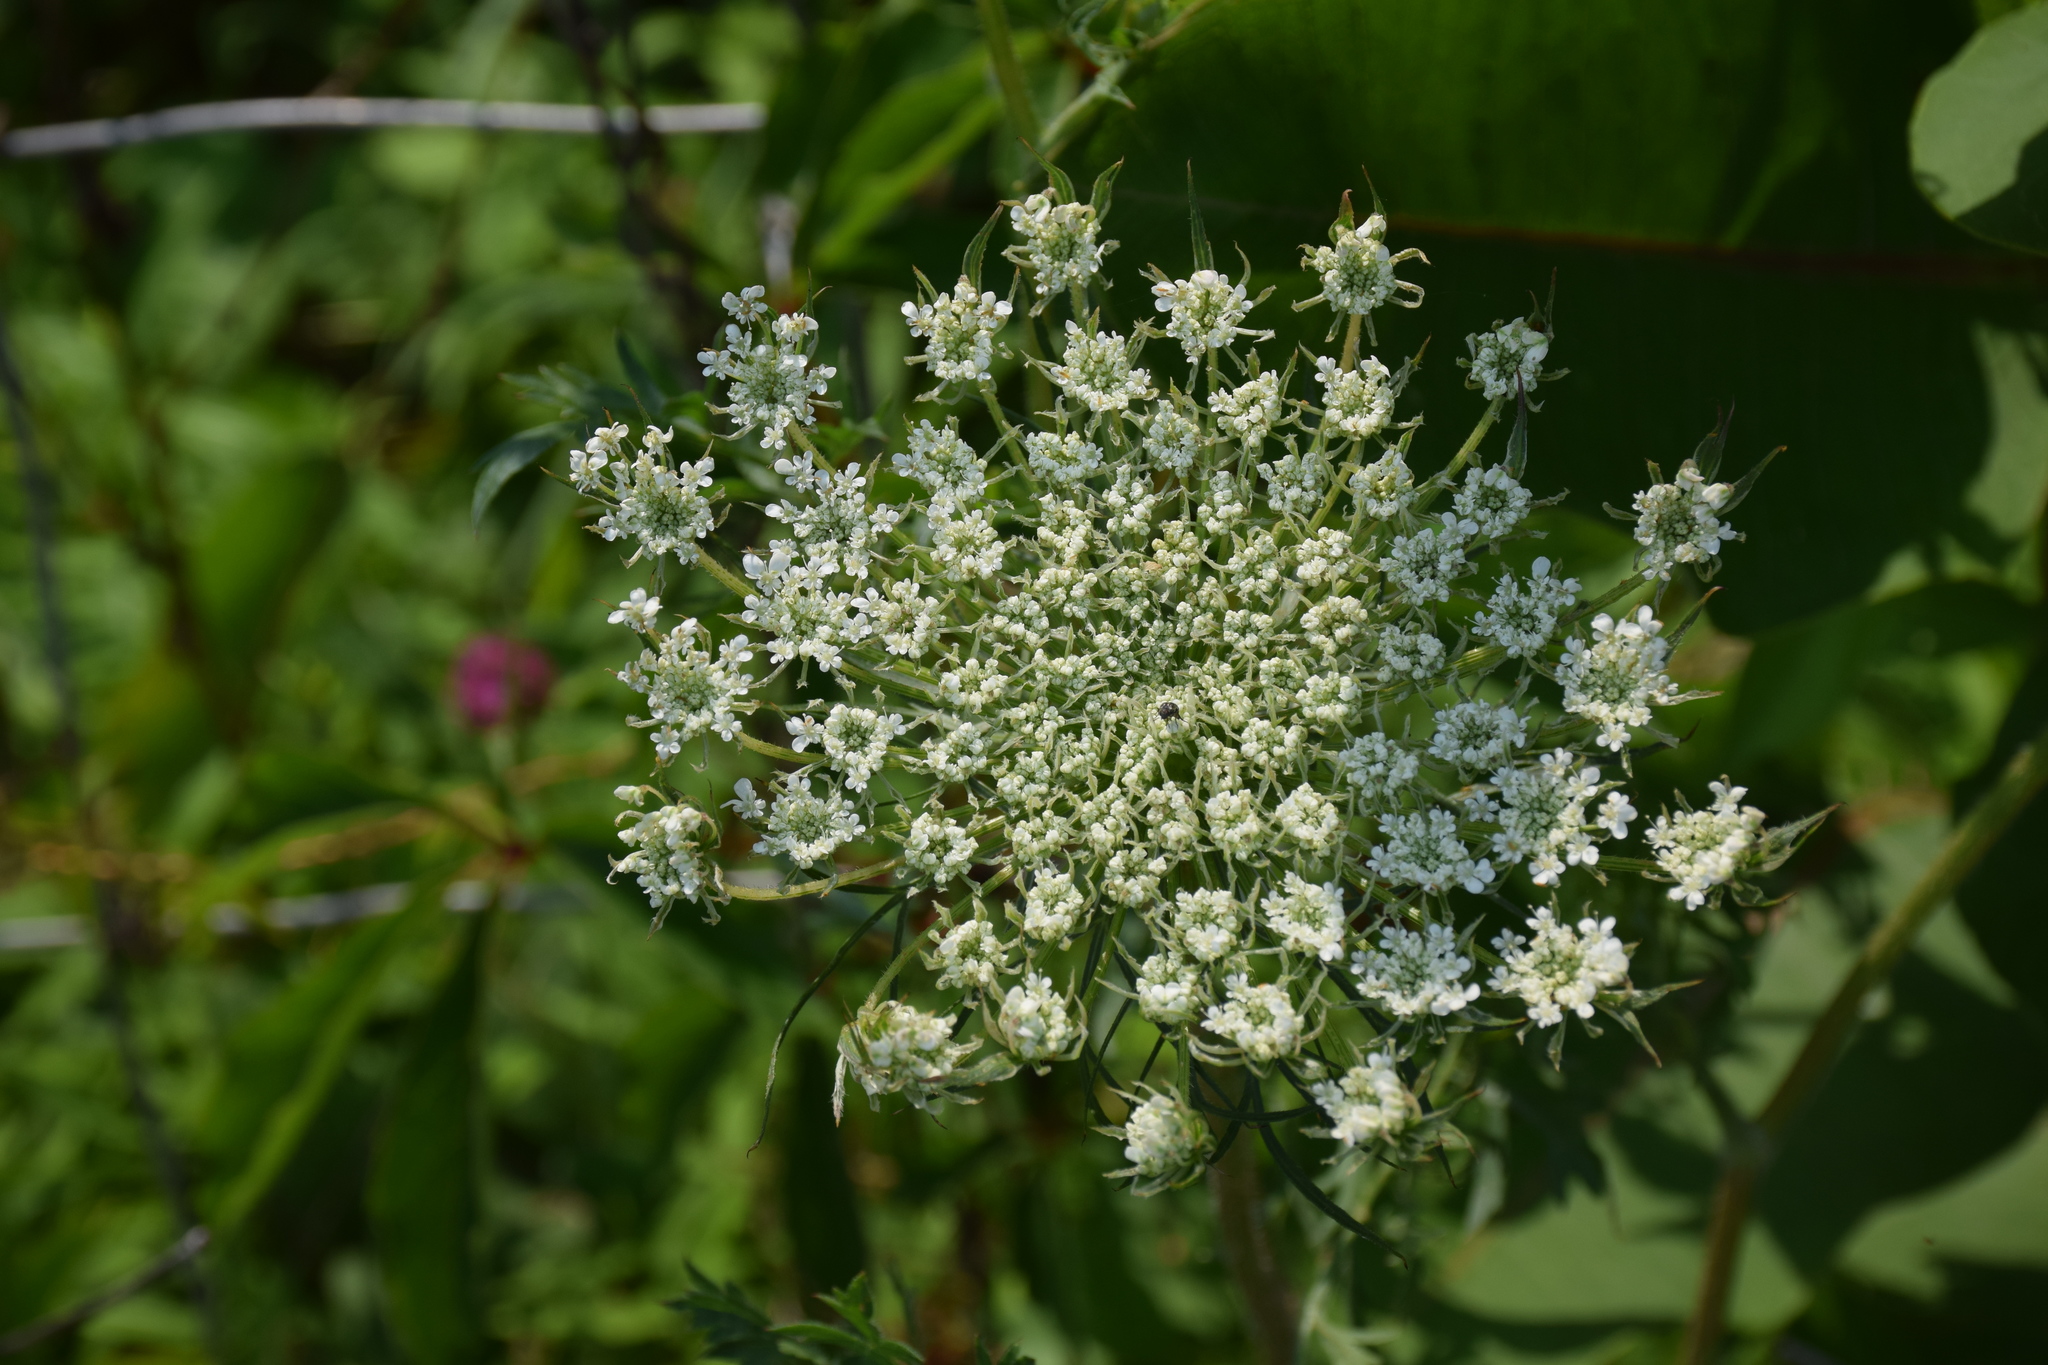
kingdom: Plantae
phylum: Tracheophyta
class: Magnoliopsida
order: Apiales
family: Apiaceae
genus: Daucus
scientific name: Daucus carota
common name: Wild carrot
